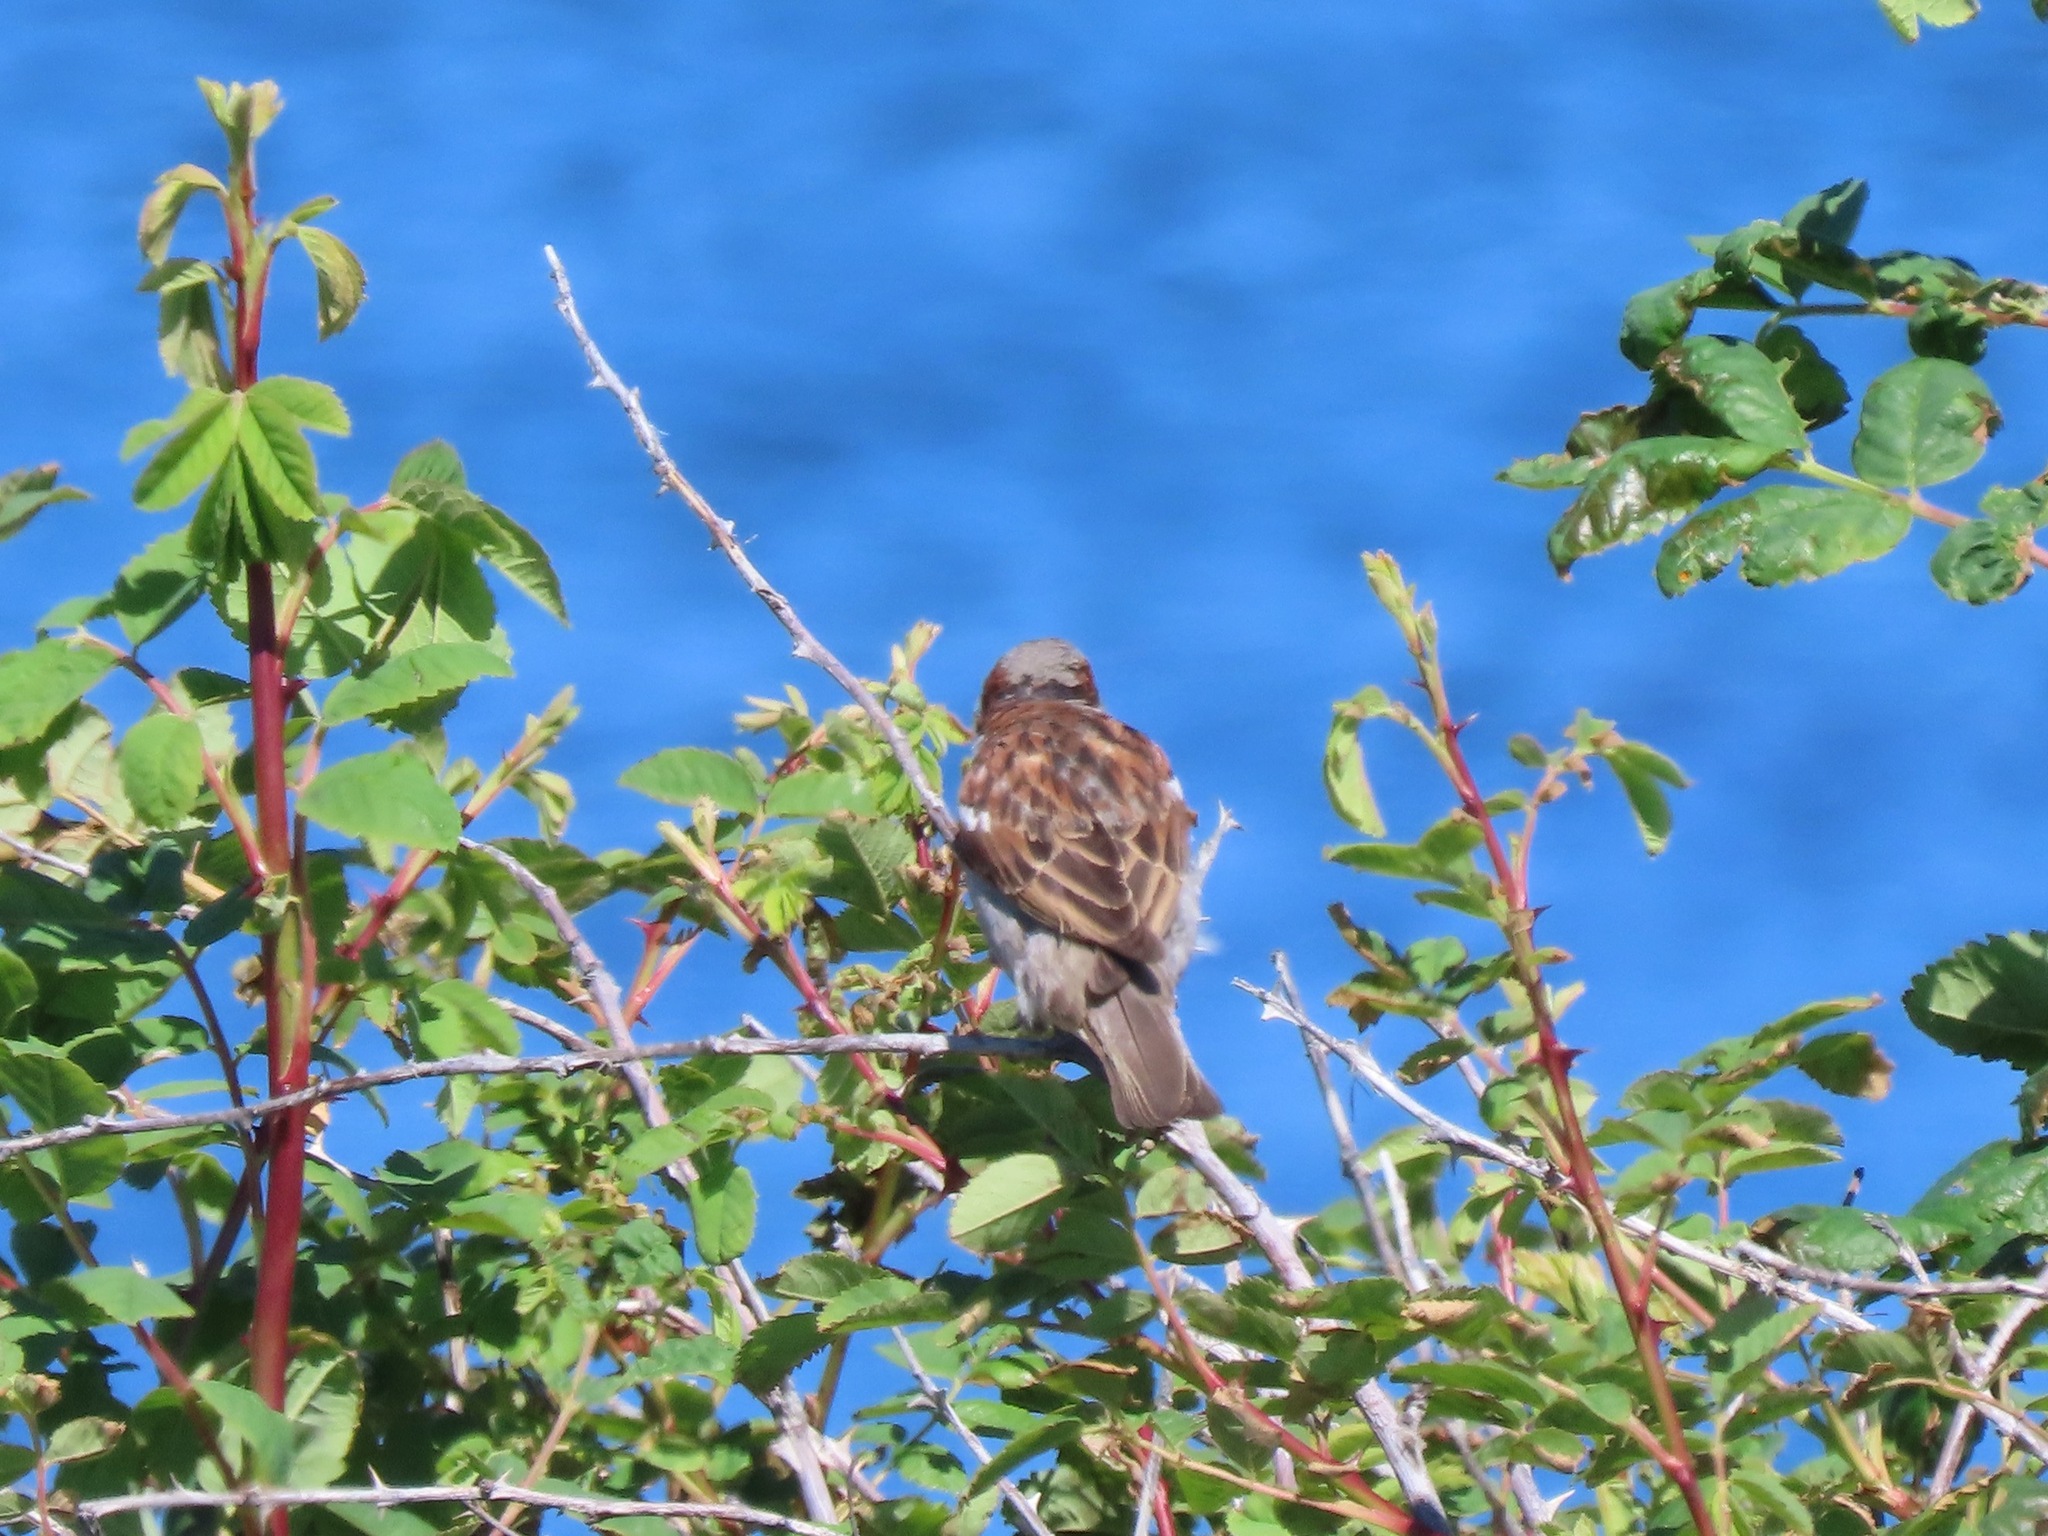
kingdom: Animalia
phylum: Chordata
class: Aves
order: Passeriformes
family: Passeridae
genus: Passer
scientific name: Passer domesticus
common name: House sparrow
